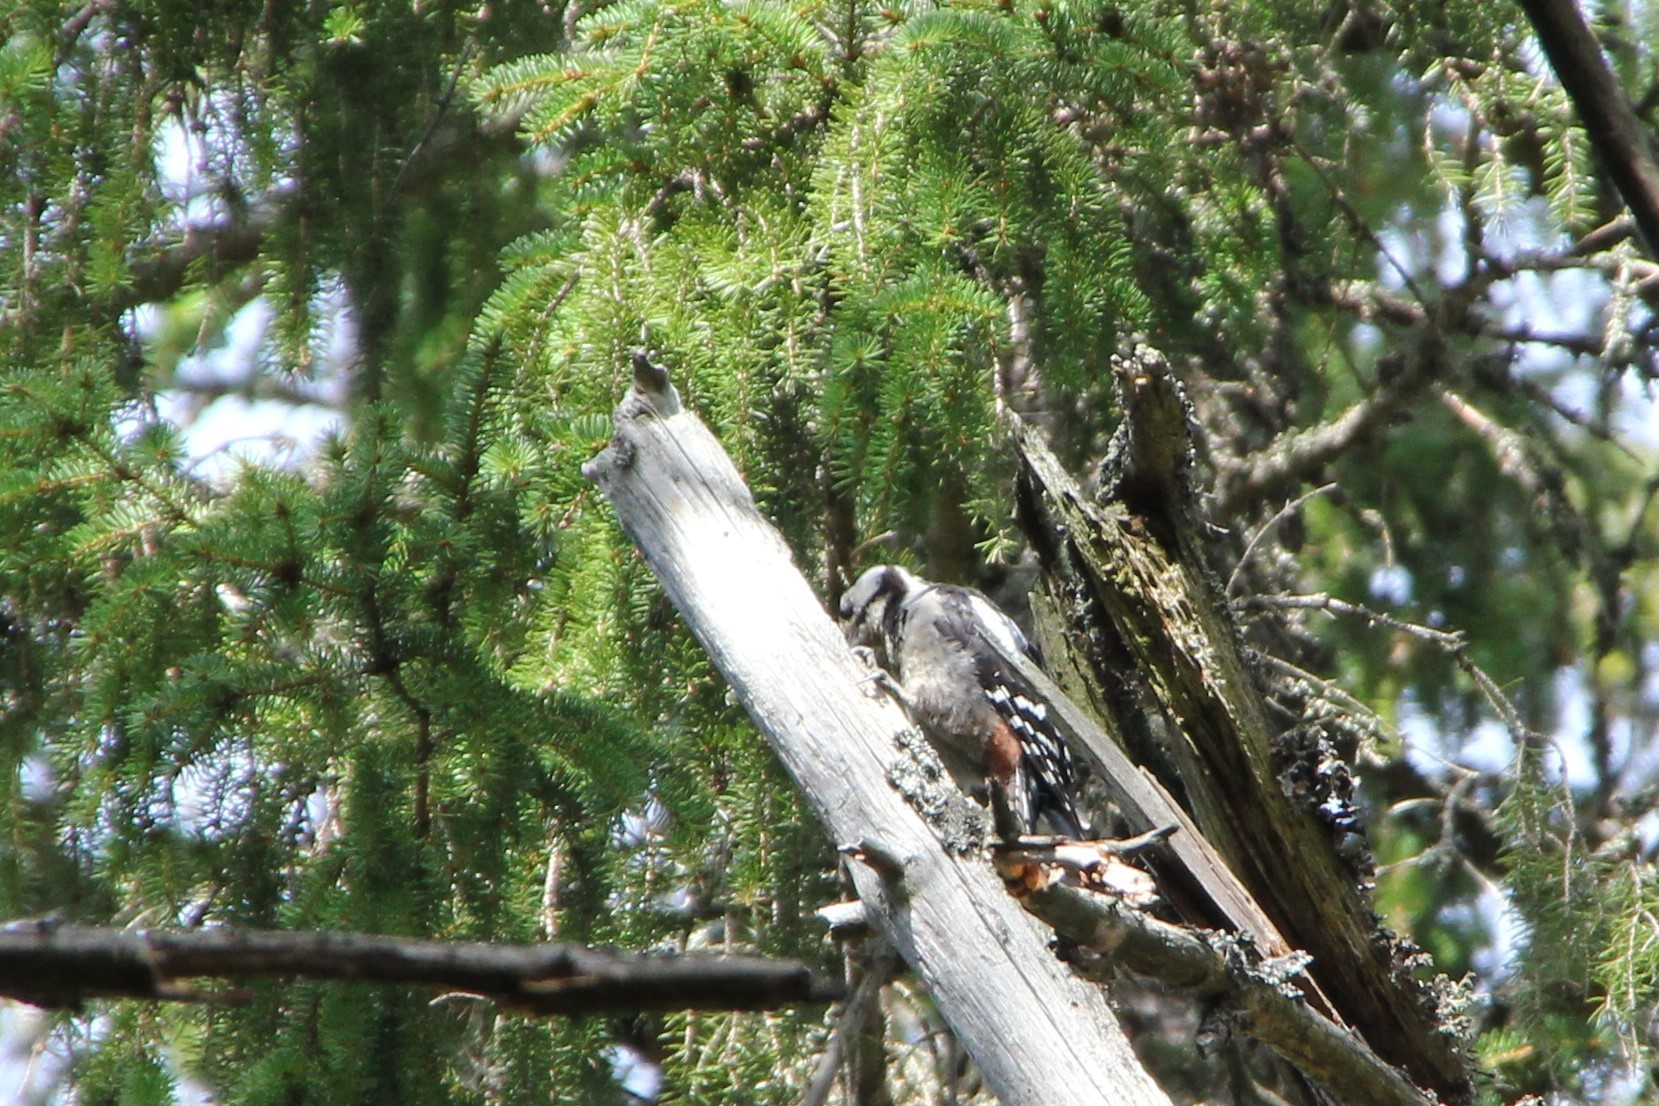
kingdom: Animalia
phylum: Chordata
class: Aves
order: Piciformes
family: Picidae
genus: Dendrocopos
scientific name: Dendrocopos major
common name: Great spotted woodpecker
